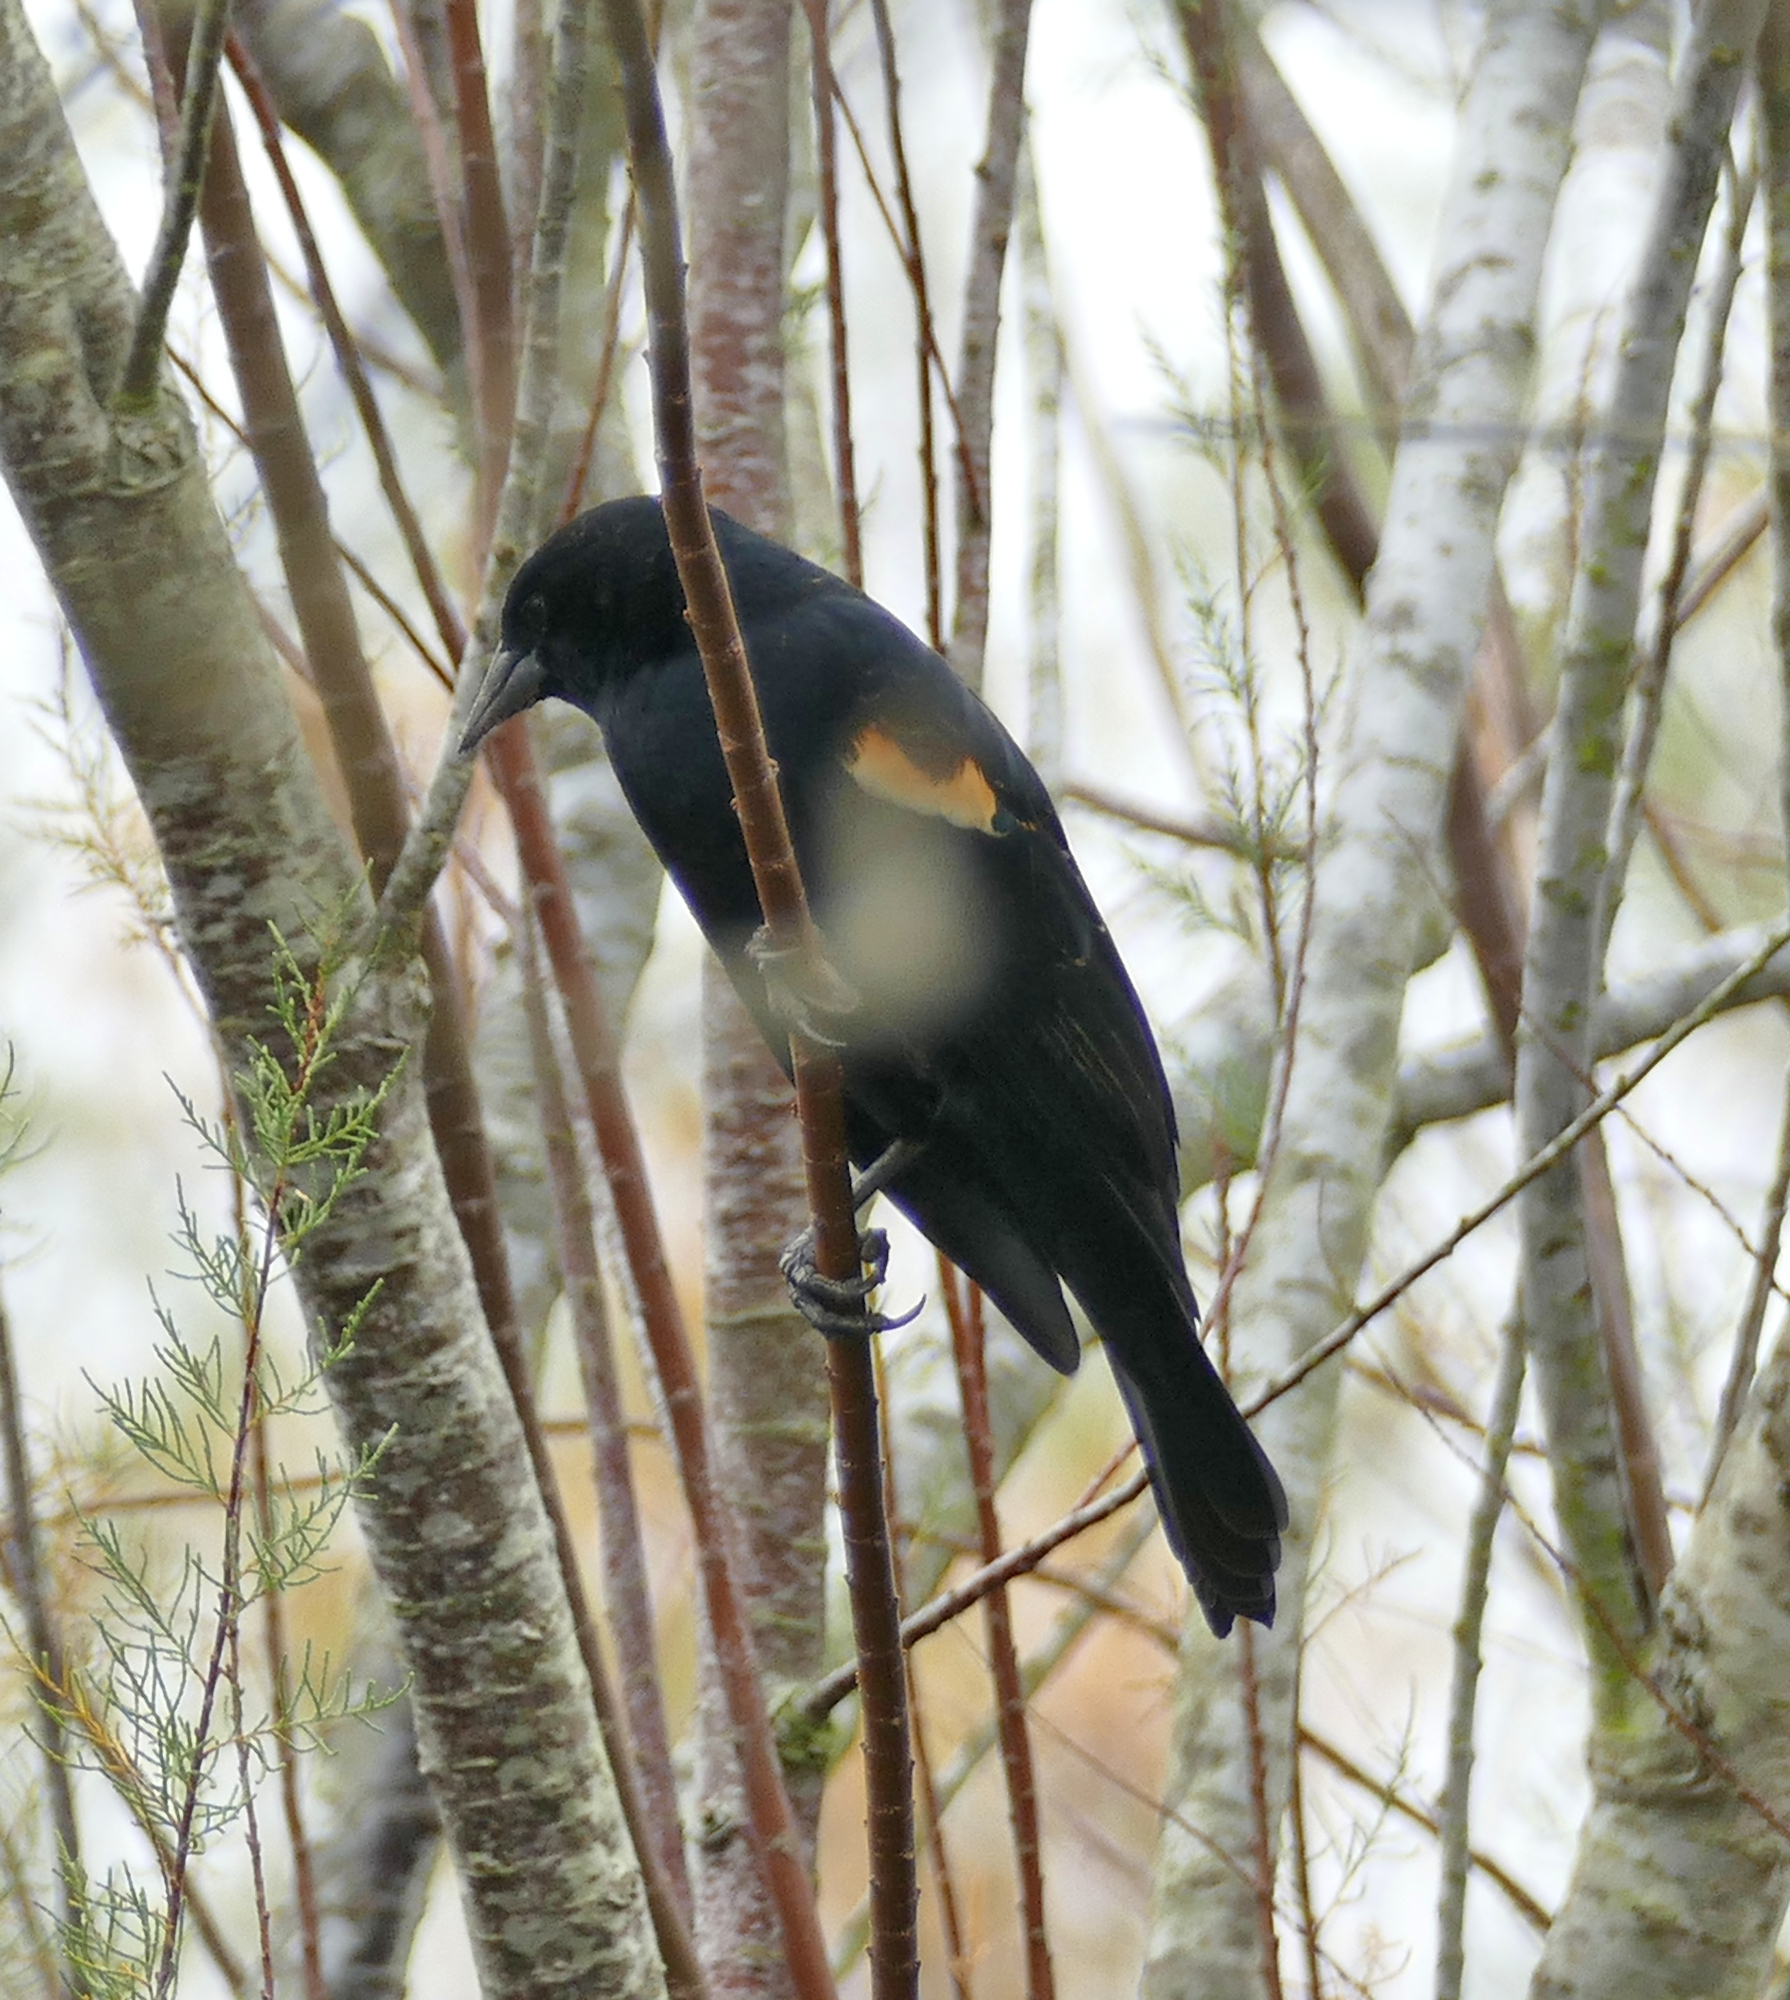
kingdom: Animalia
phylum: Chordata
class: Aves
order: Passeriformes
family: Icteridae
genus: Agelaius
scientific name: Agelaius phoeniceus
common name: Red-winged blackbird
